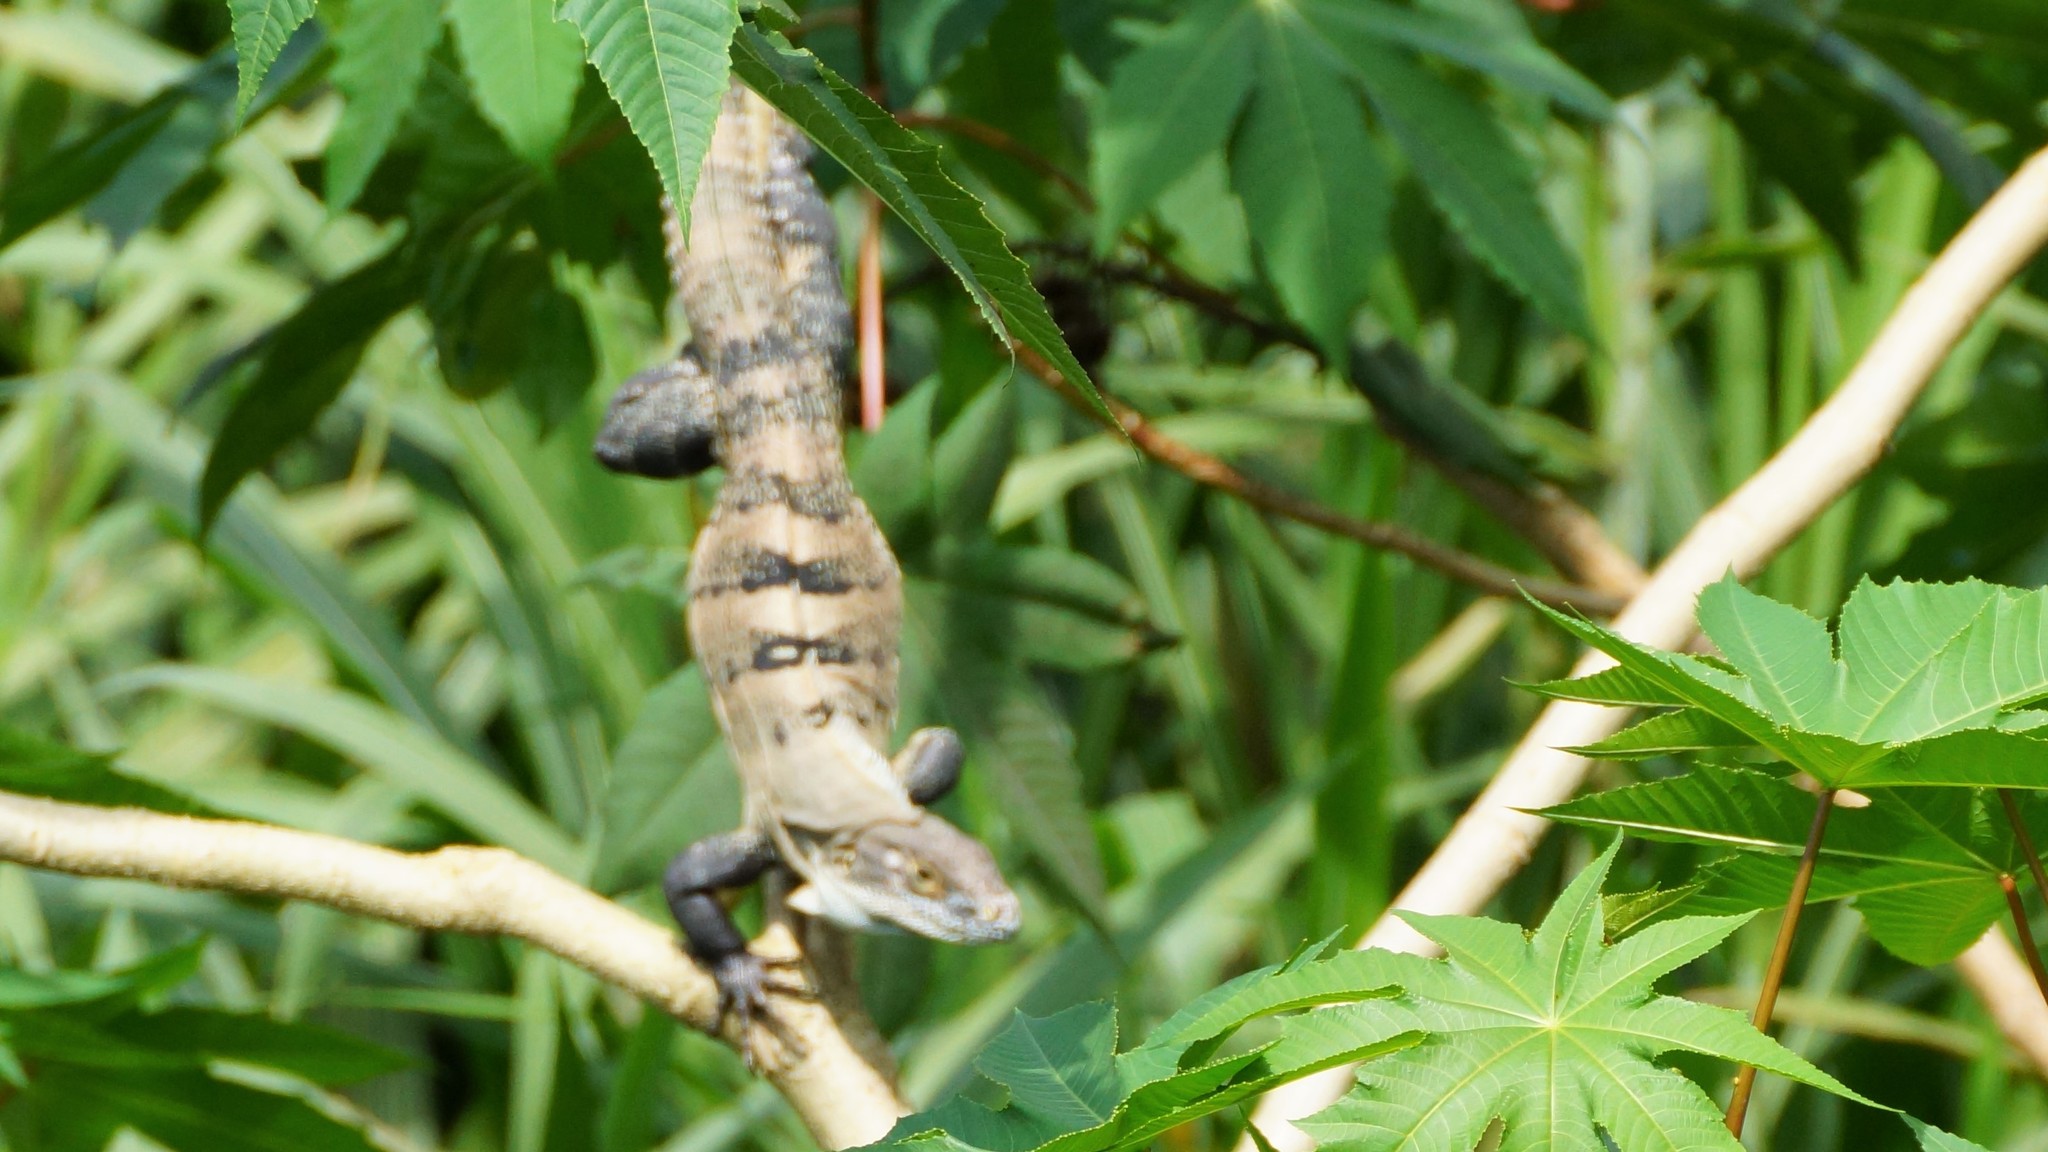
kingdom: Animalia
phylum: Chordata
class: Squamata
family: Iguanidae
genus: Ctenosaura
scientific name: Ctenosaura similis
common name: Black spiny-tailed iguana
